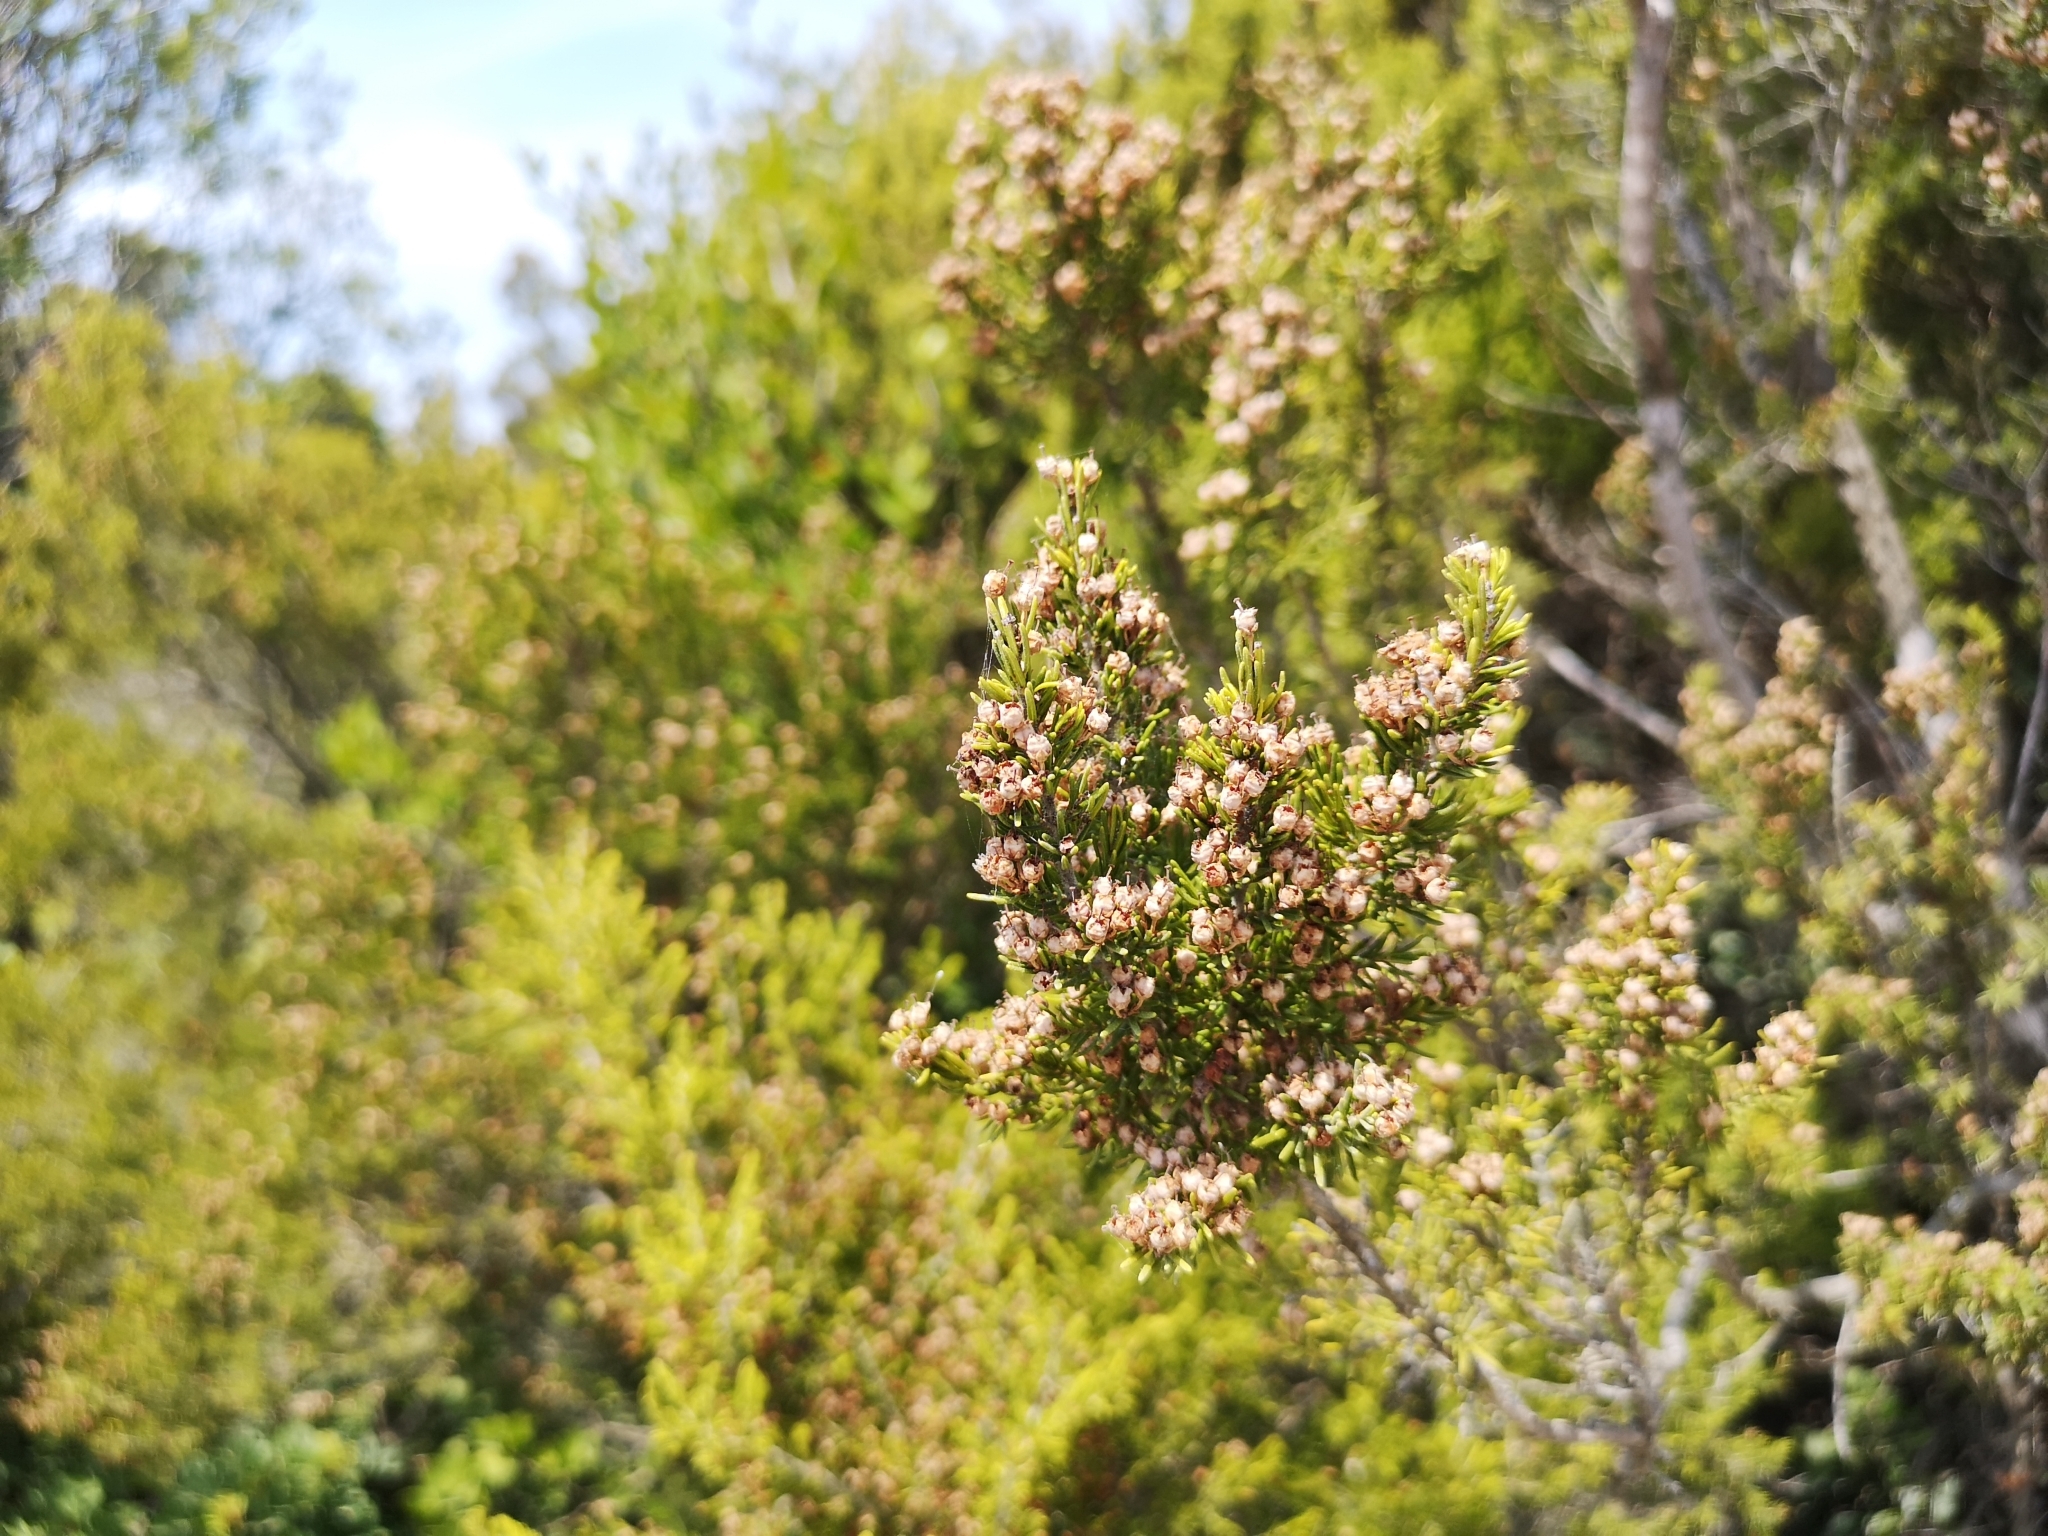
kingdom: Plantae
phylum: Tracheophyta
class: Magnoliopsida
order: Ericales
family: Ericaceae
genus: Erica
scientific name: Erica arborea
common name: Tree heath
